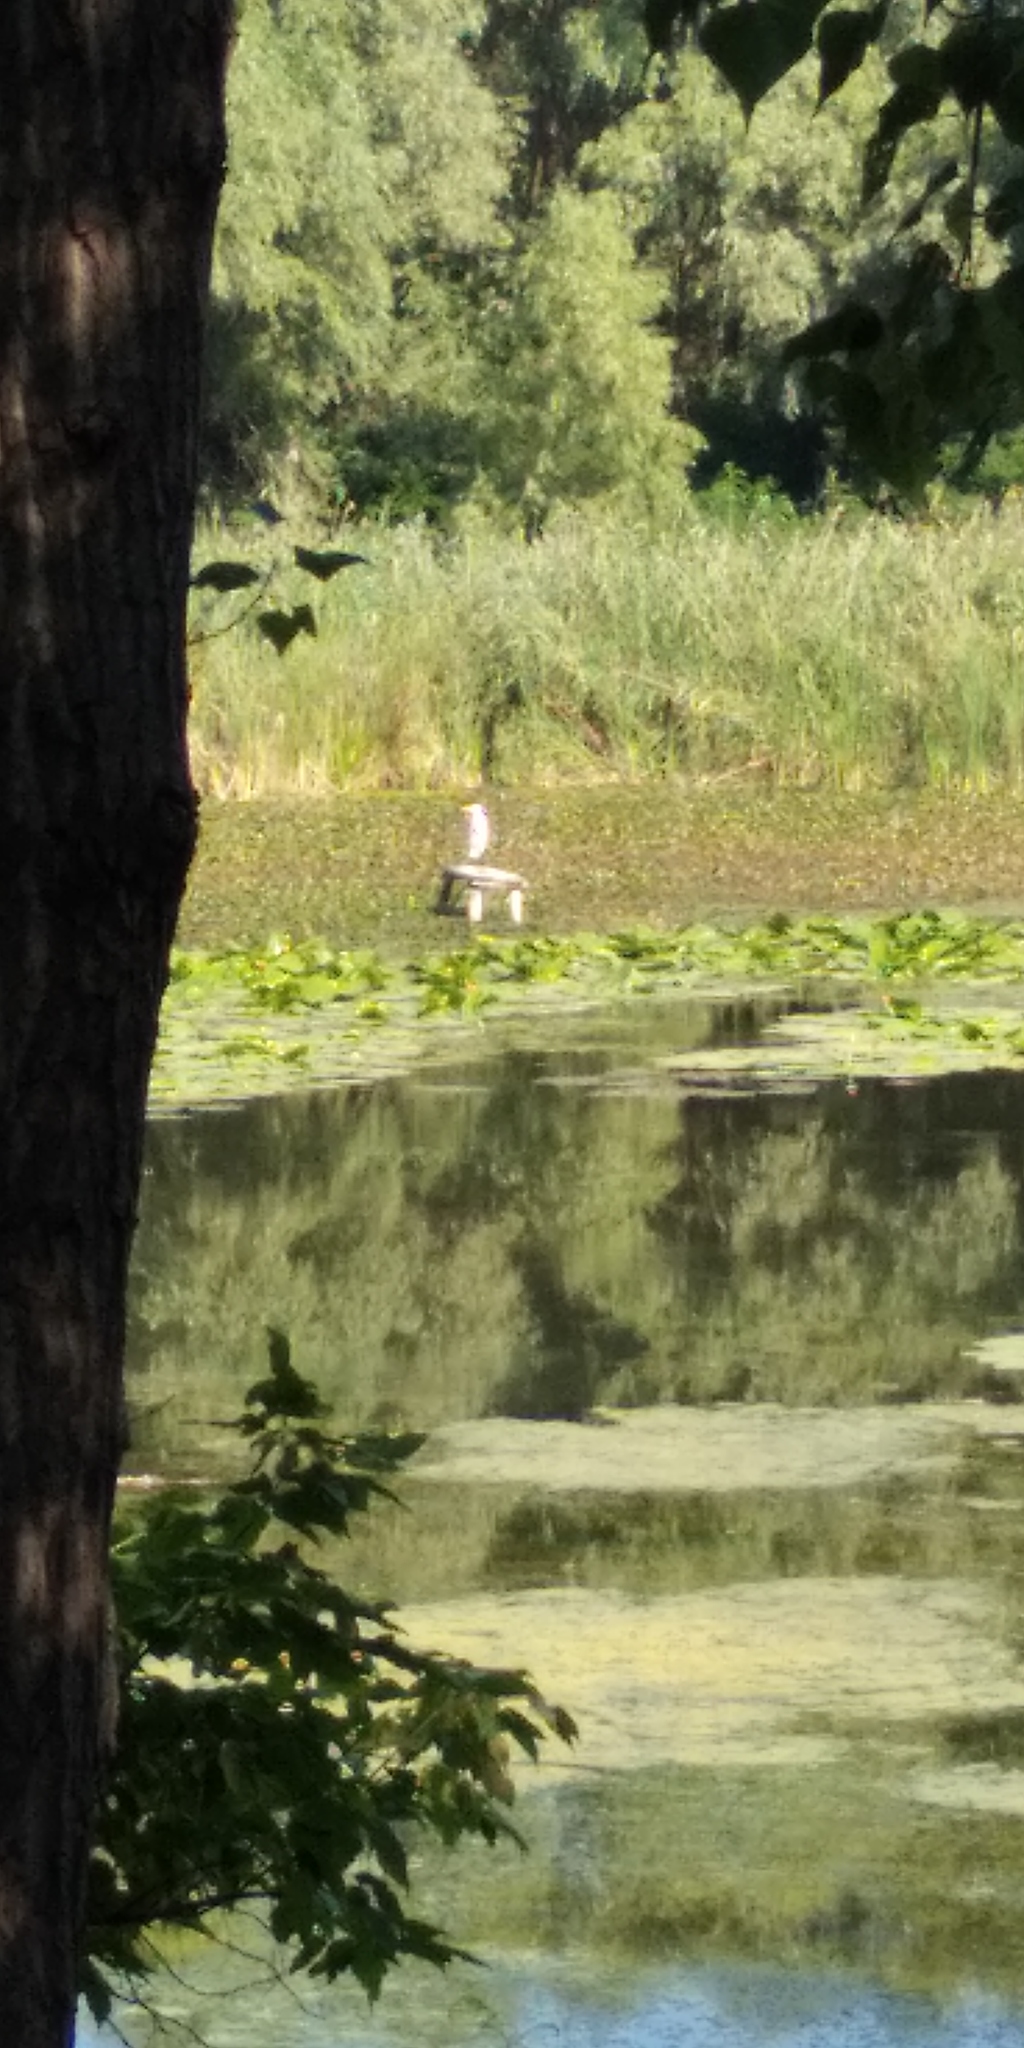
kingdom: Animalia
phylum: Chordata
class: Aves
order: Pelecaniformes
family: Ardeidae
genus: Ardea
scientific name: Ardea alba
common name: Great egret
